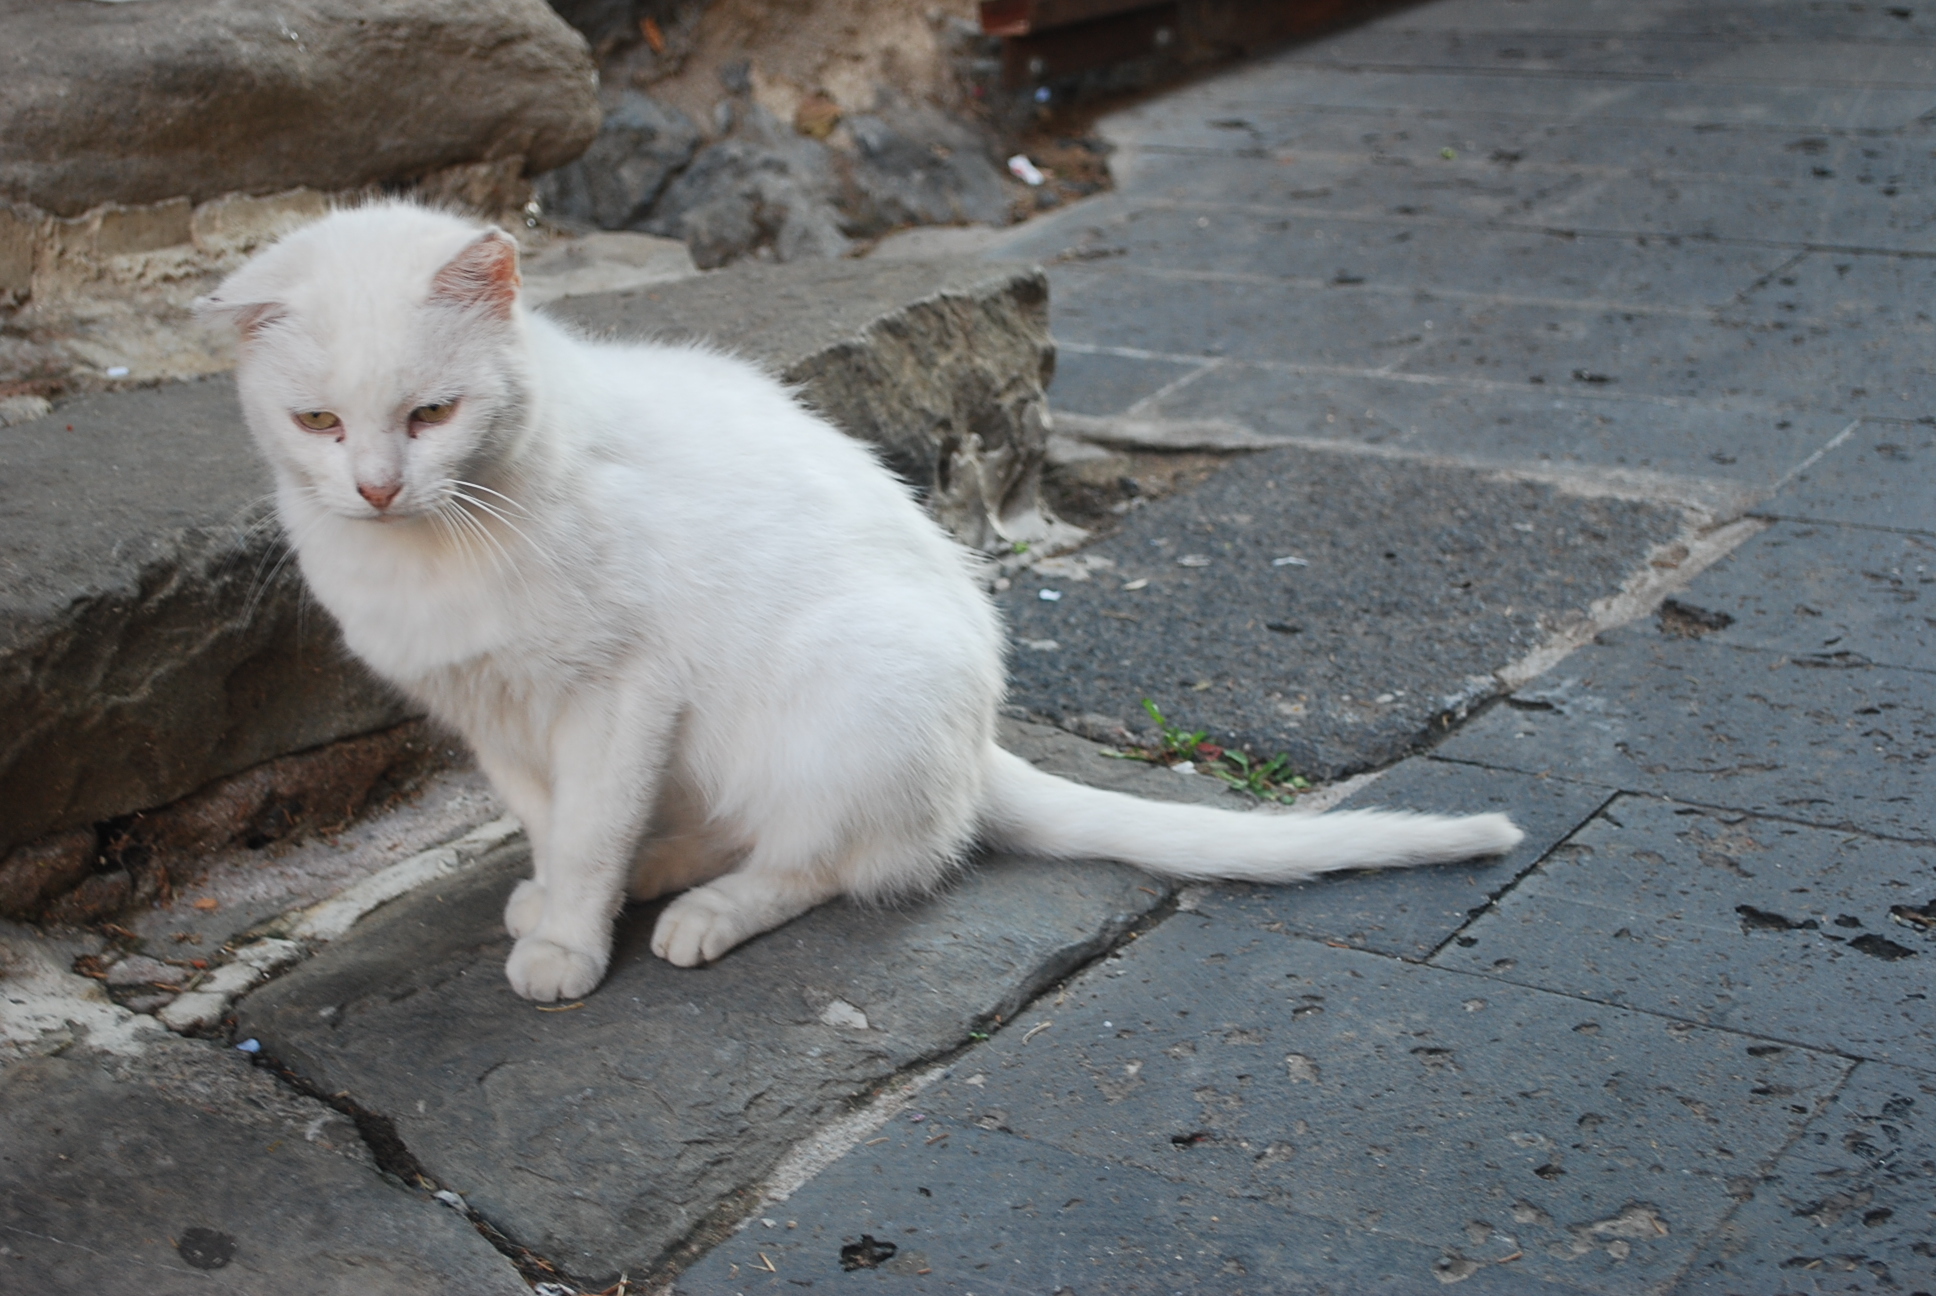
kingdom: Animalia
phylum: Chordata
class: Mammalia
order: Carnivora
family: Felidae
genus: Felis
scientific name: Felis catus
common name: Domestic cat
